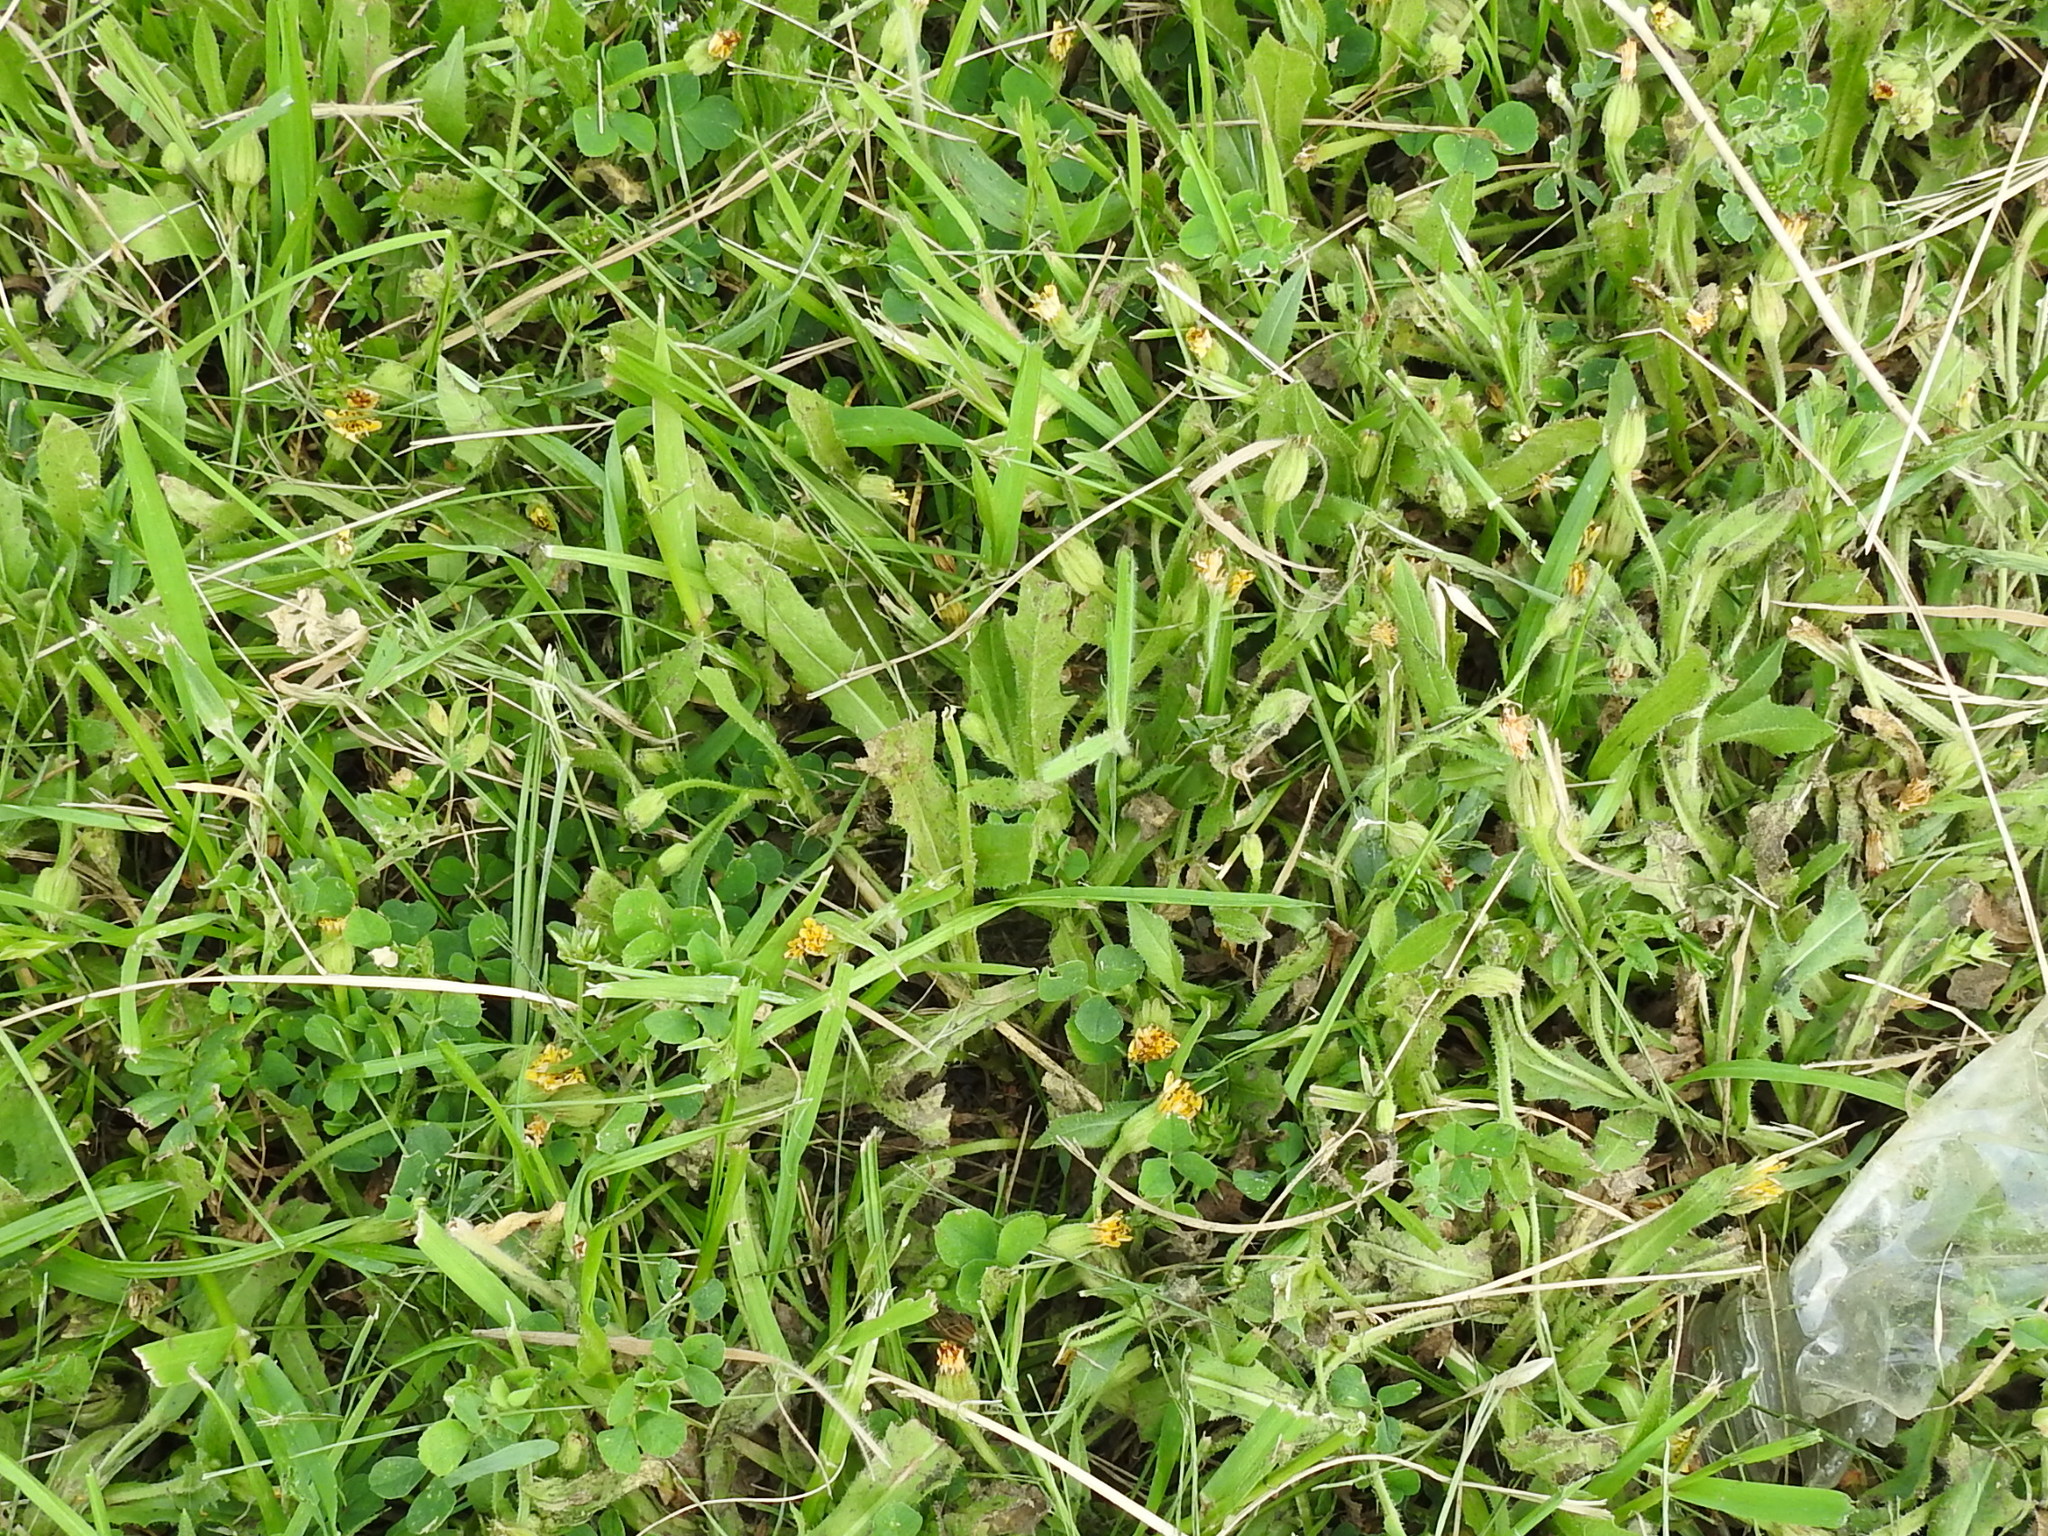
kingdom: Plantae
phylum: Tracheophyta
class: Magnoliopsida
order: Asterales
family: Asteraceae
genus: Hedypnois
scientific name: Hedypnois rhagadioloides
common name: Cretan weed
